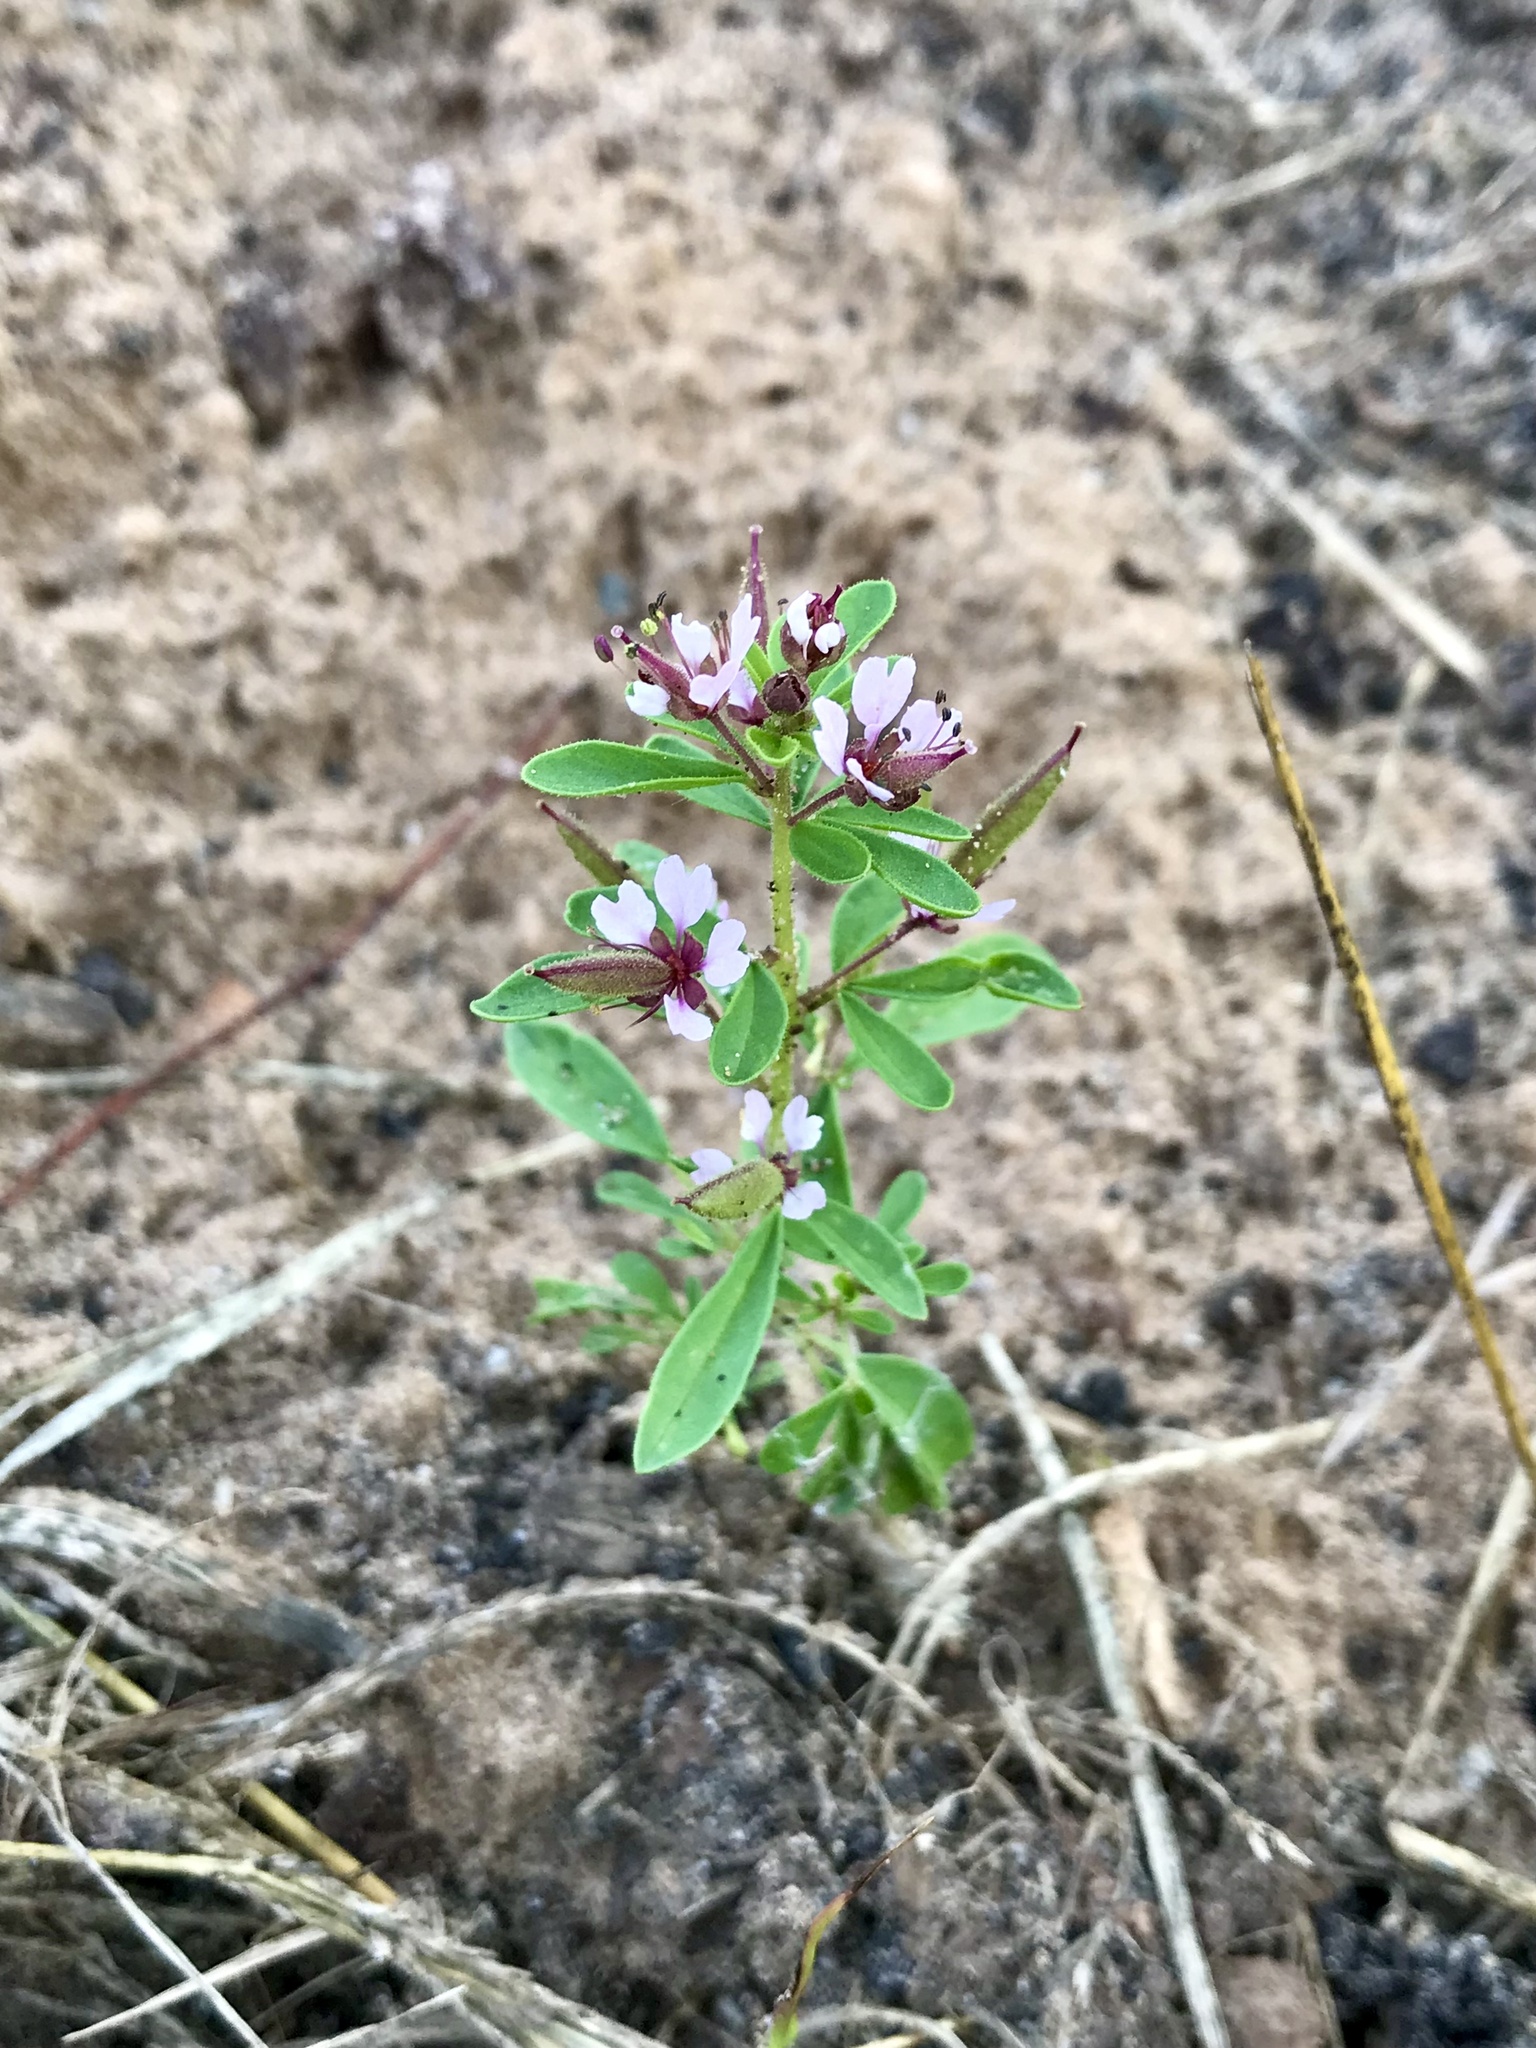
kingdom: Plantae
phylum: Tracheophyta
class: Magnoliopsida
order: Brassicales
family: Cleomaceae
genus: Polanisia
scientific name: Polanisia dodecandra
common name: Clammyweed
